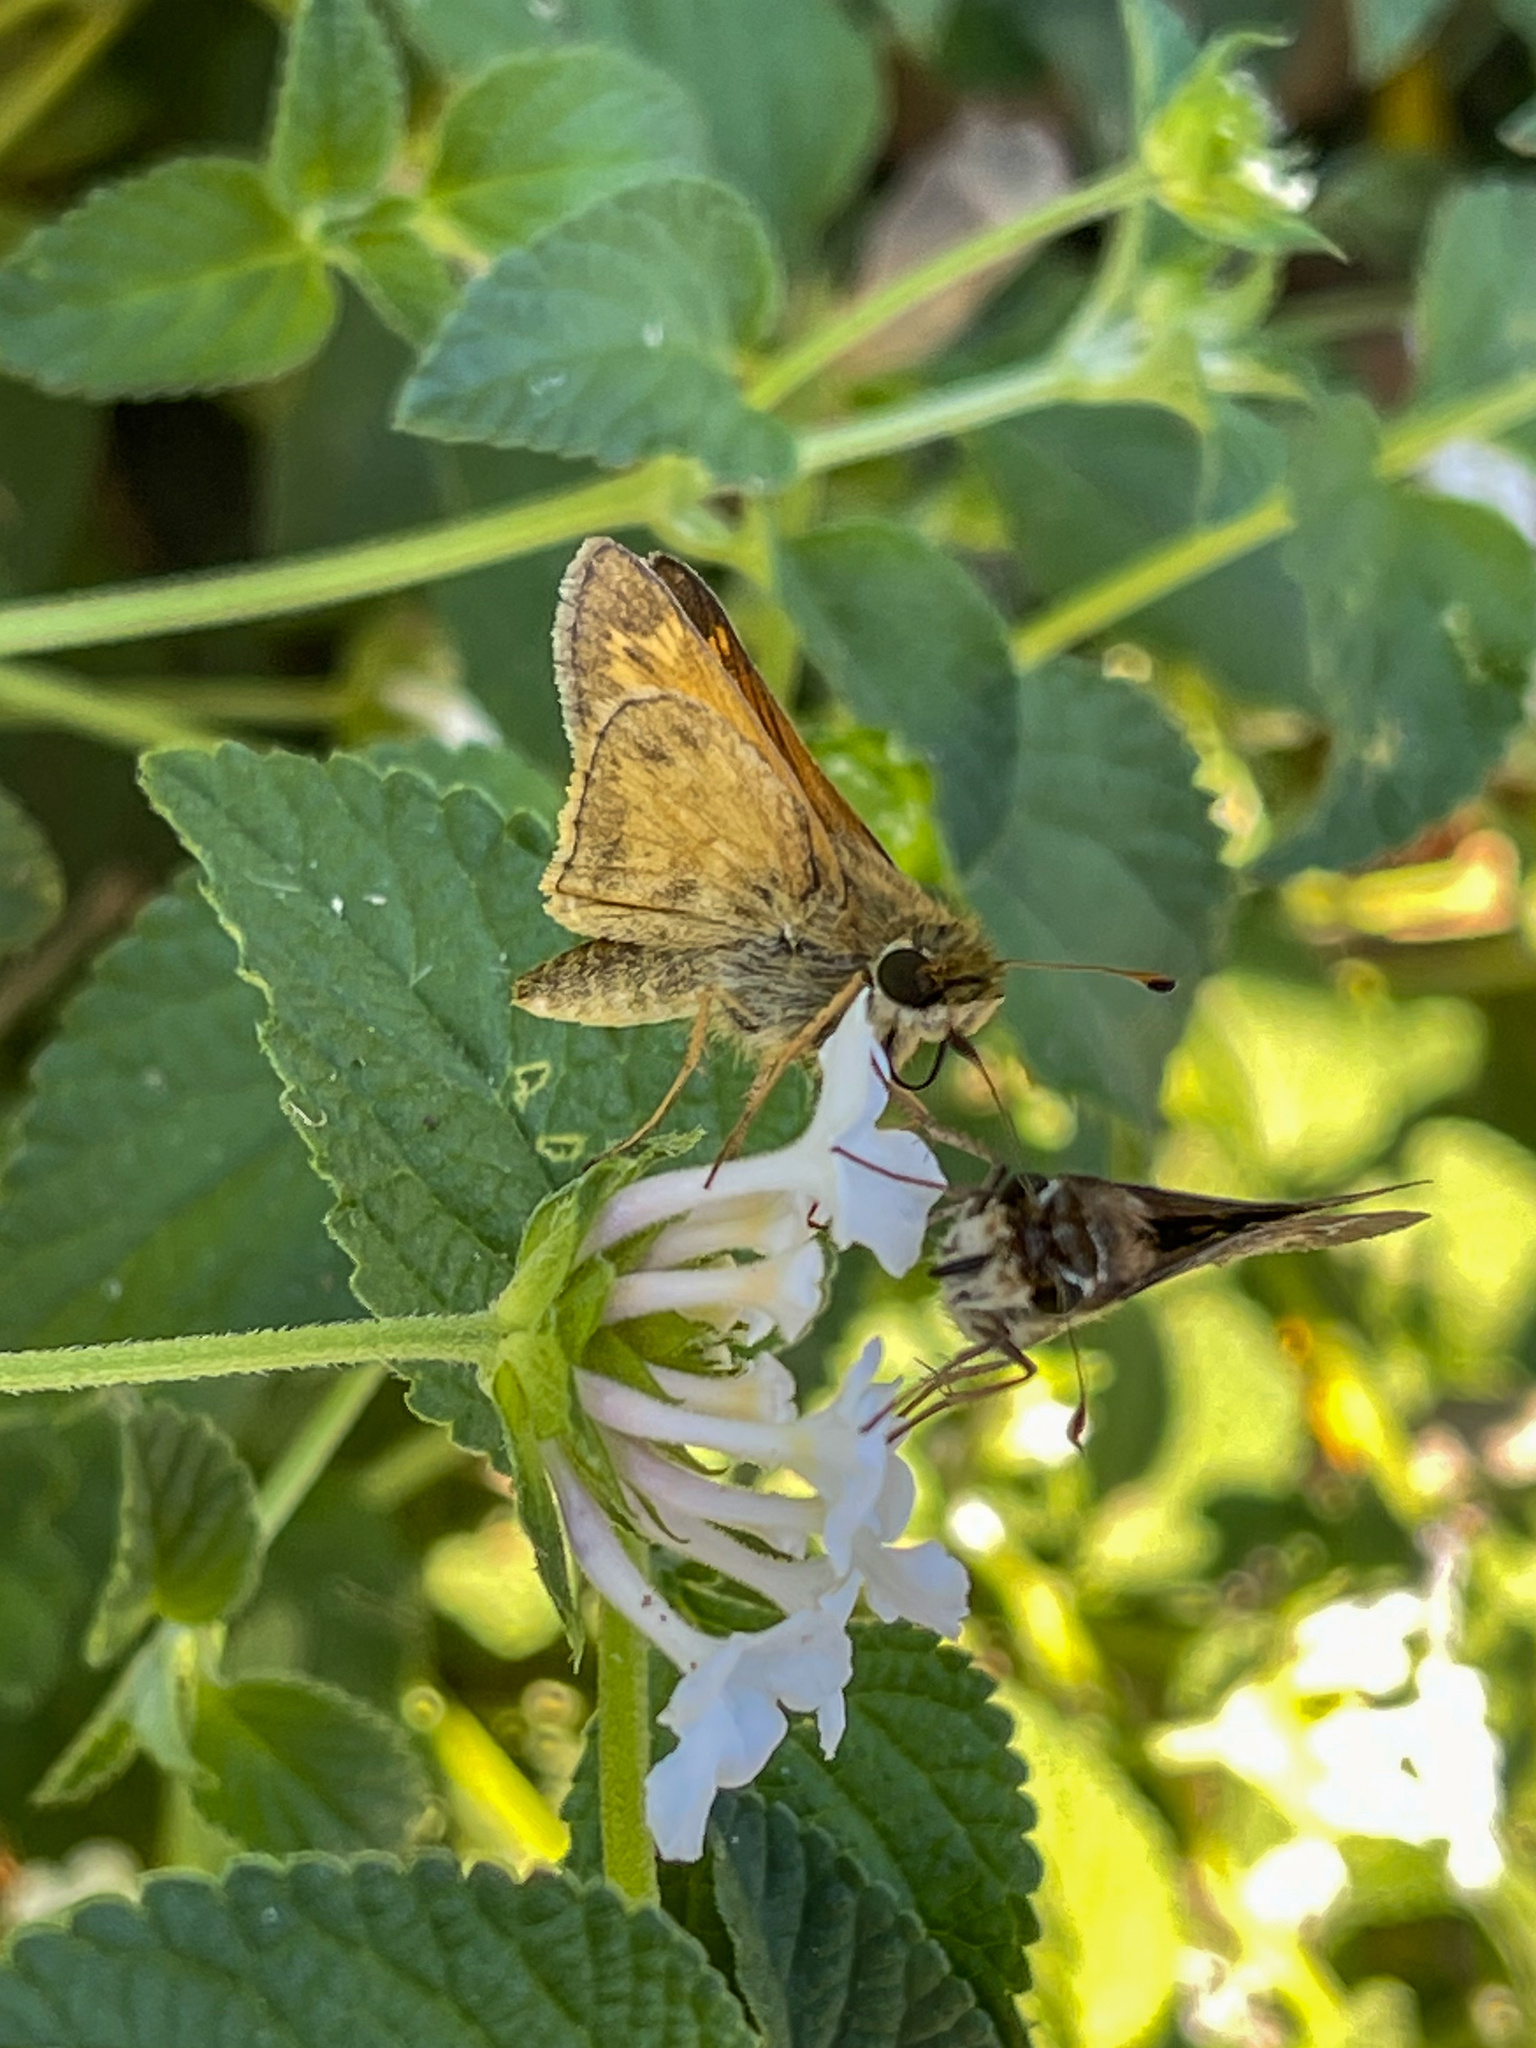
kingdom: Animalia
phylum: Arthropoda
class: Insecta
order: Lepidoptera
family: Hesperiidae
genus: Atalopedes
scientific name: Atalopedes
